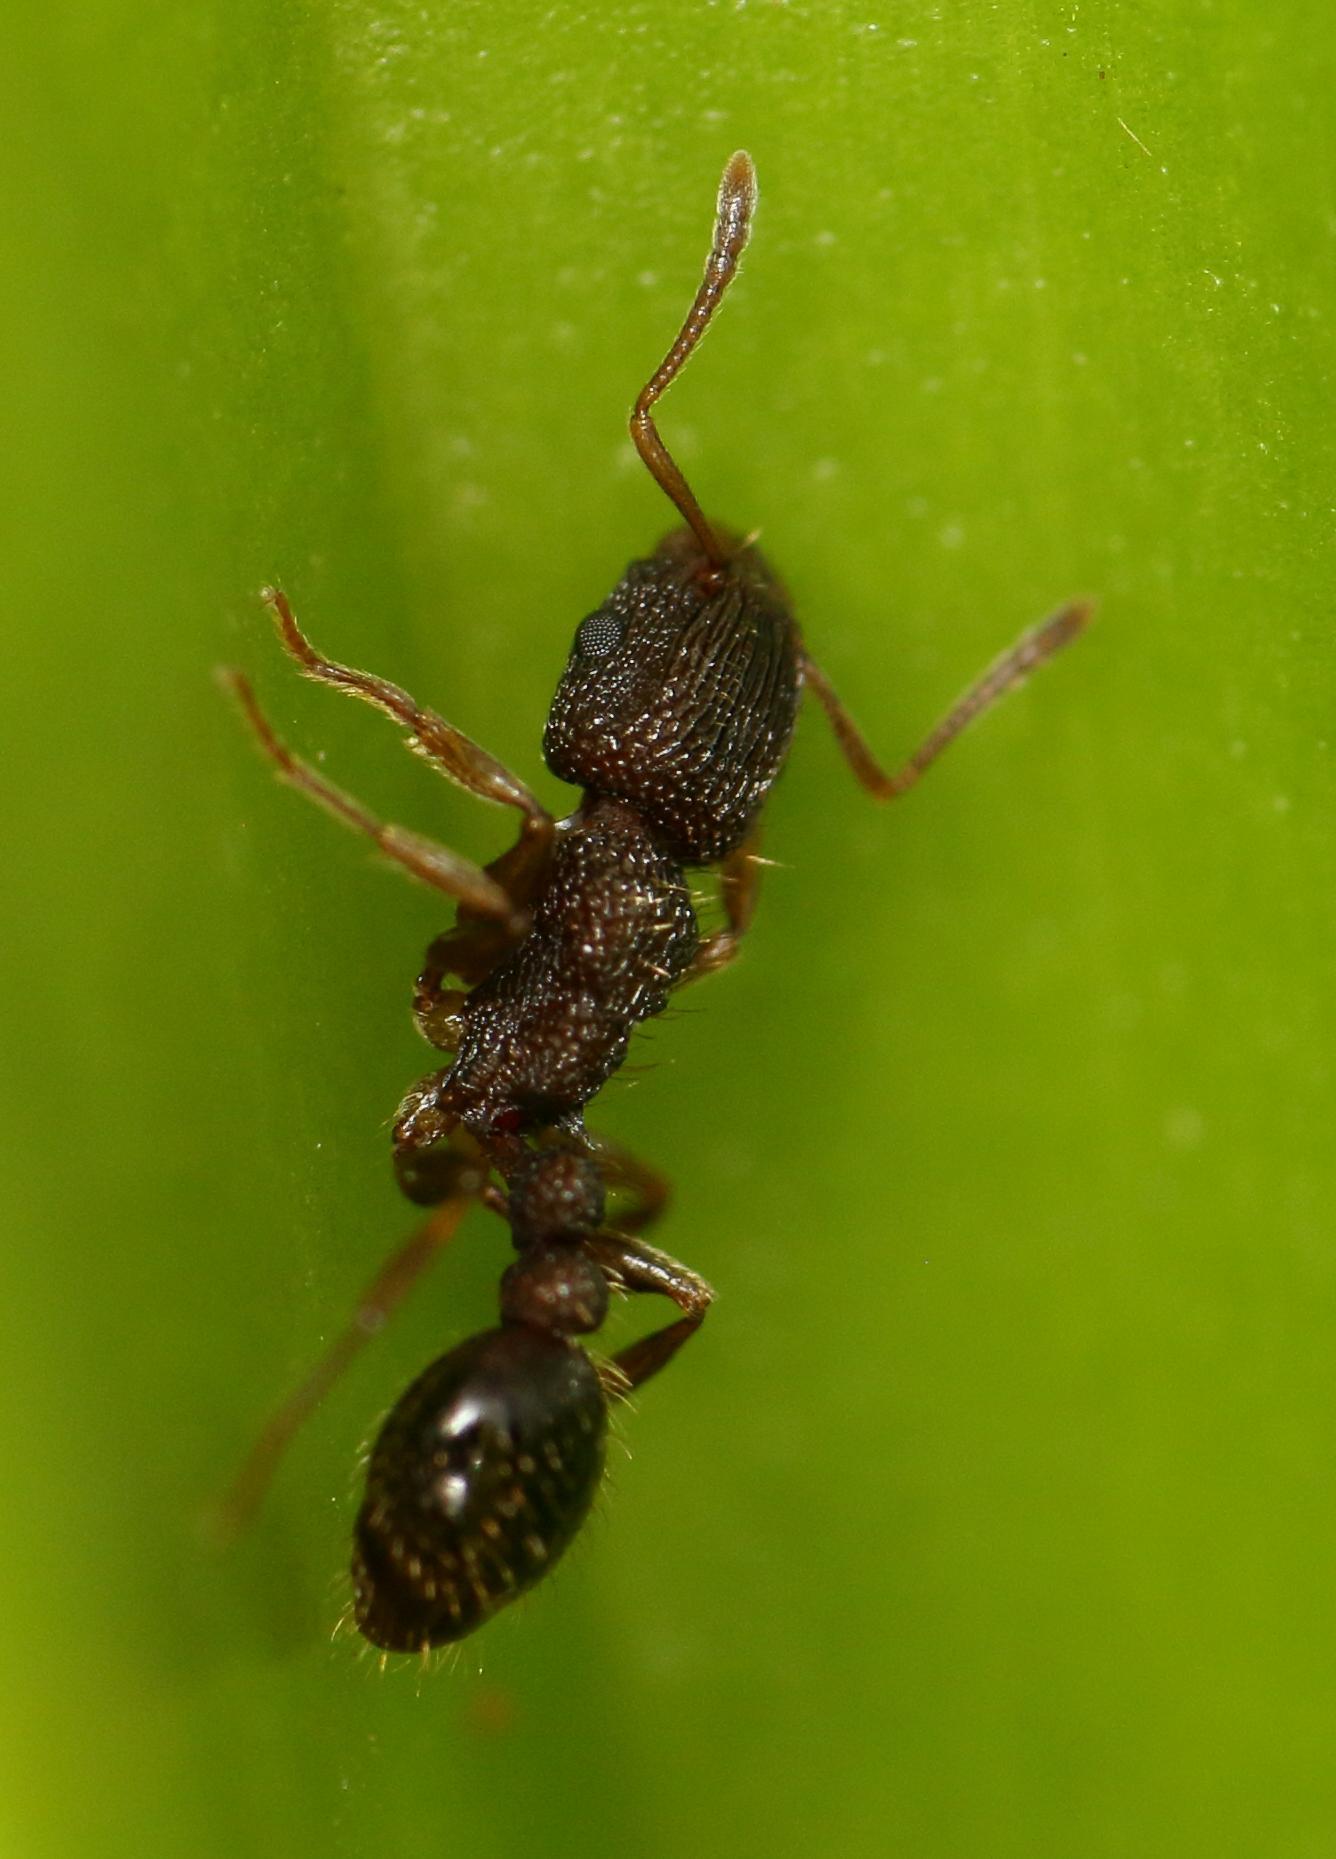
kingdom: Animalia
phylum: Arthropoda
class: Insecta
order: Hymenoptera
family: Formicidae
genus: Tetramorium
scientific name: Tetramorium erectum
